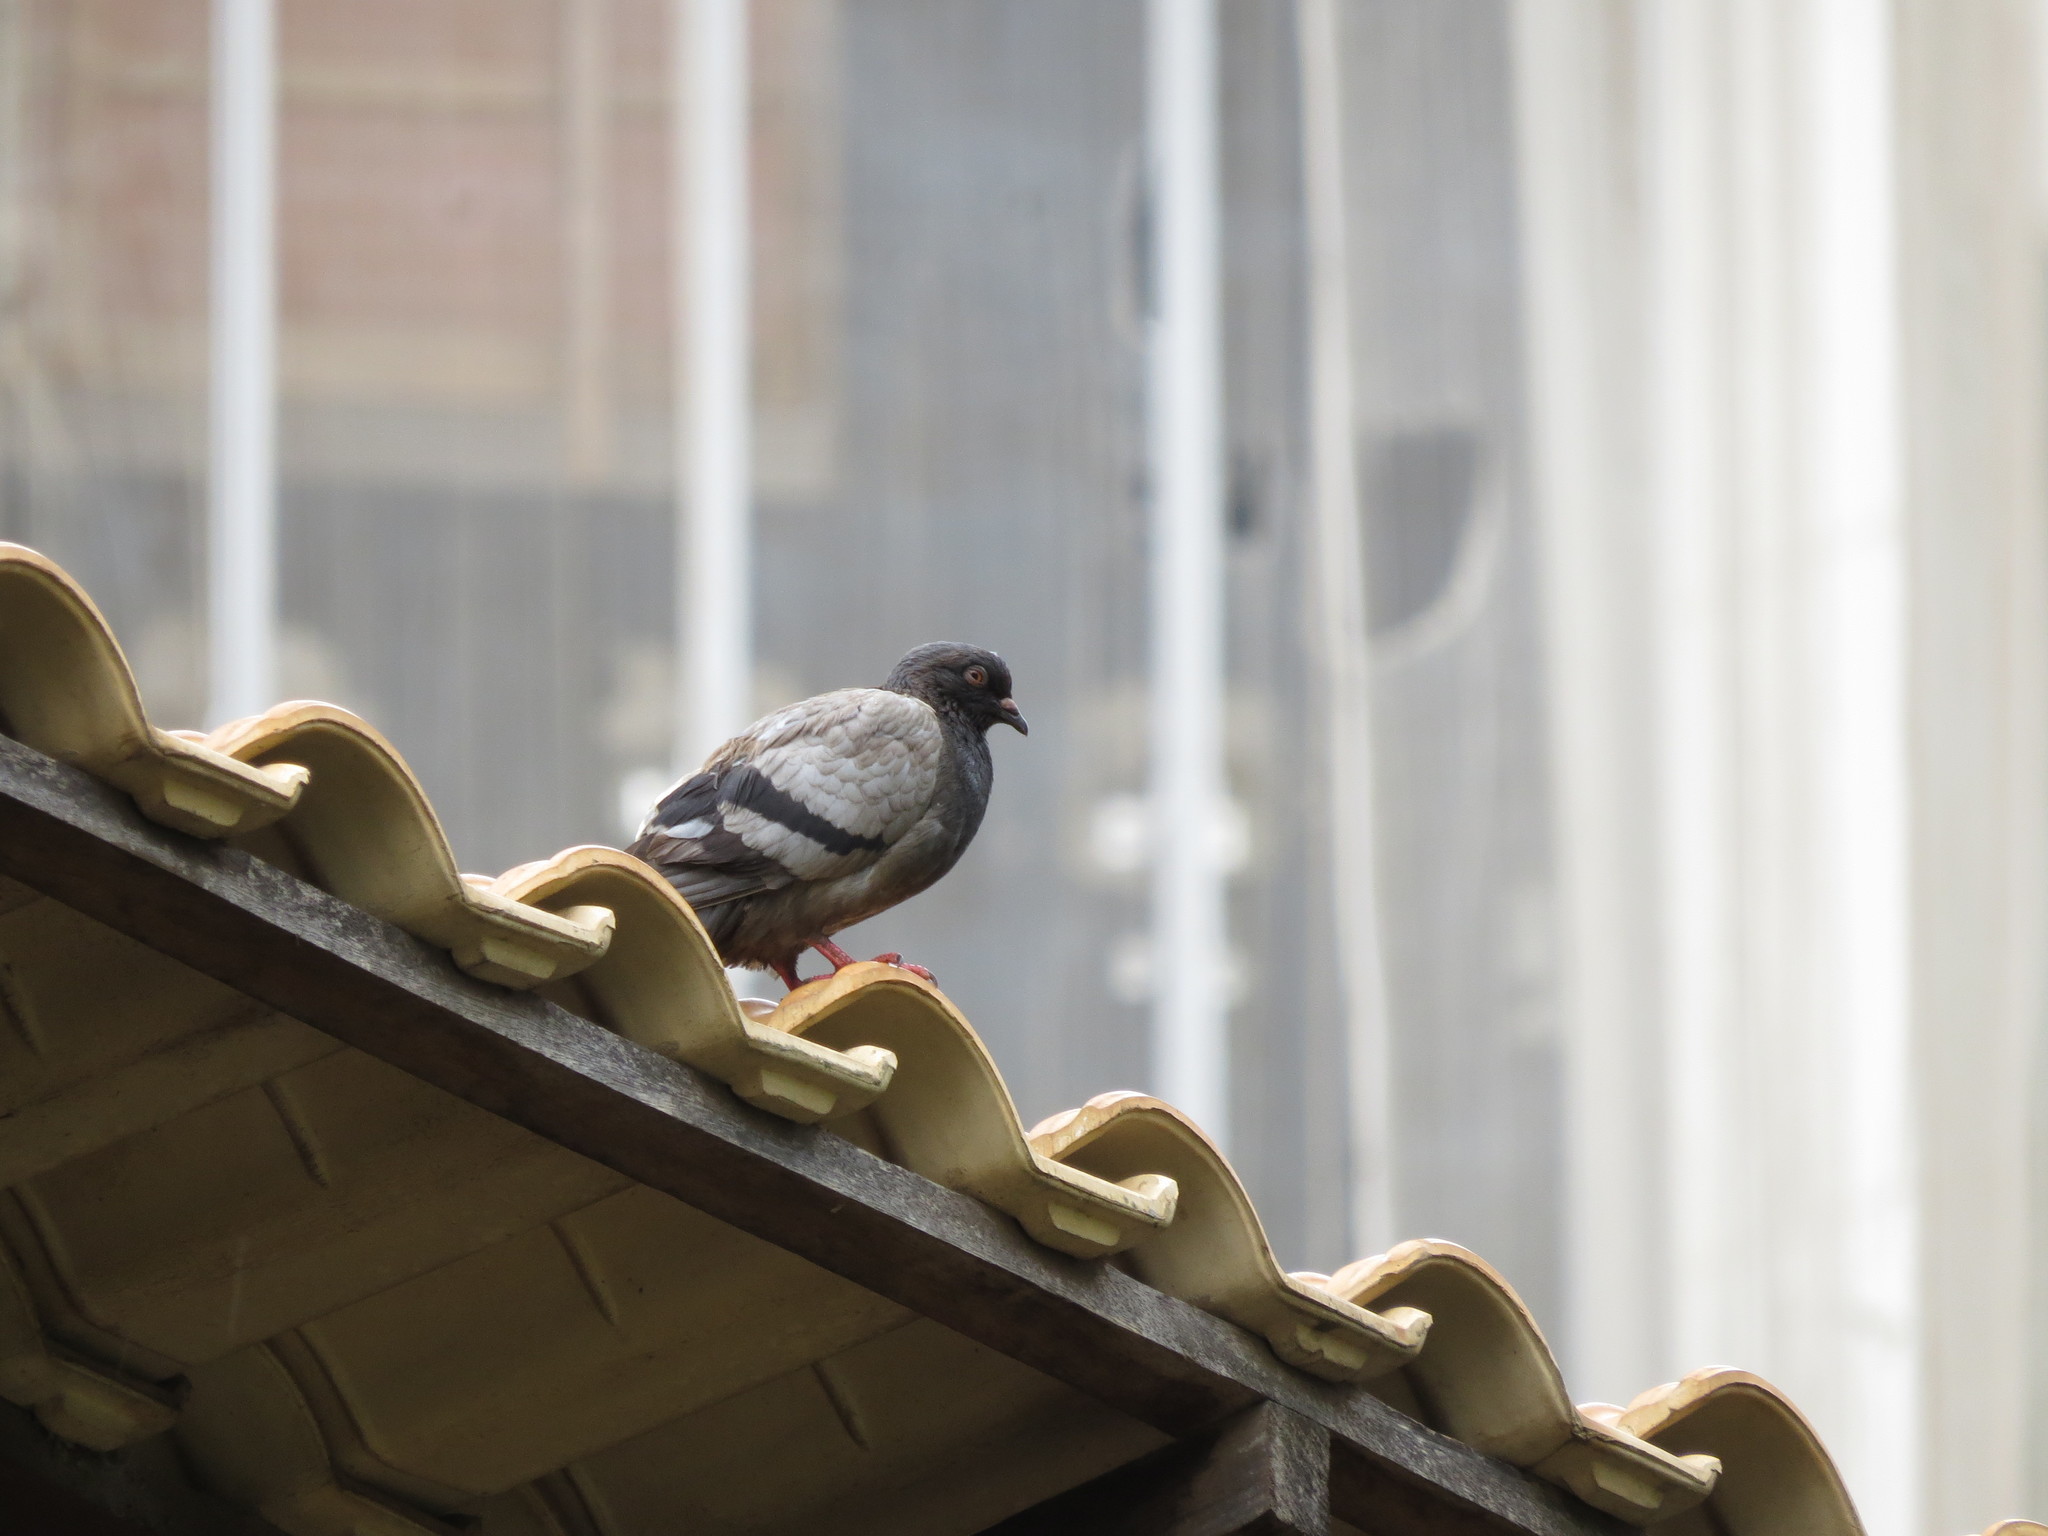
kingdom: Animalia
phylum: Chordata
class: Aves
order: Columbiformes
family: Columbidae
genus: Columba
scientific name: Columba livia
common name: Rock pigeon
